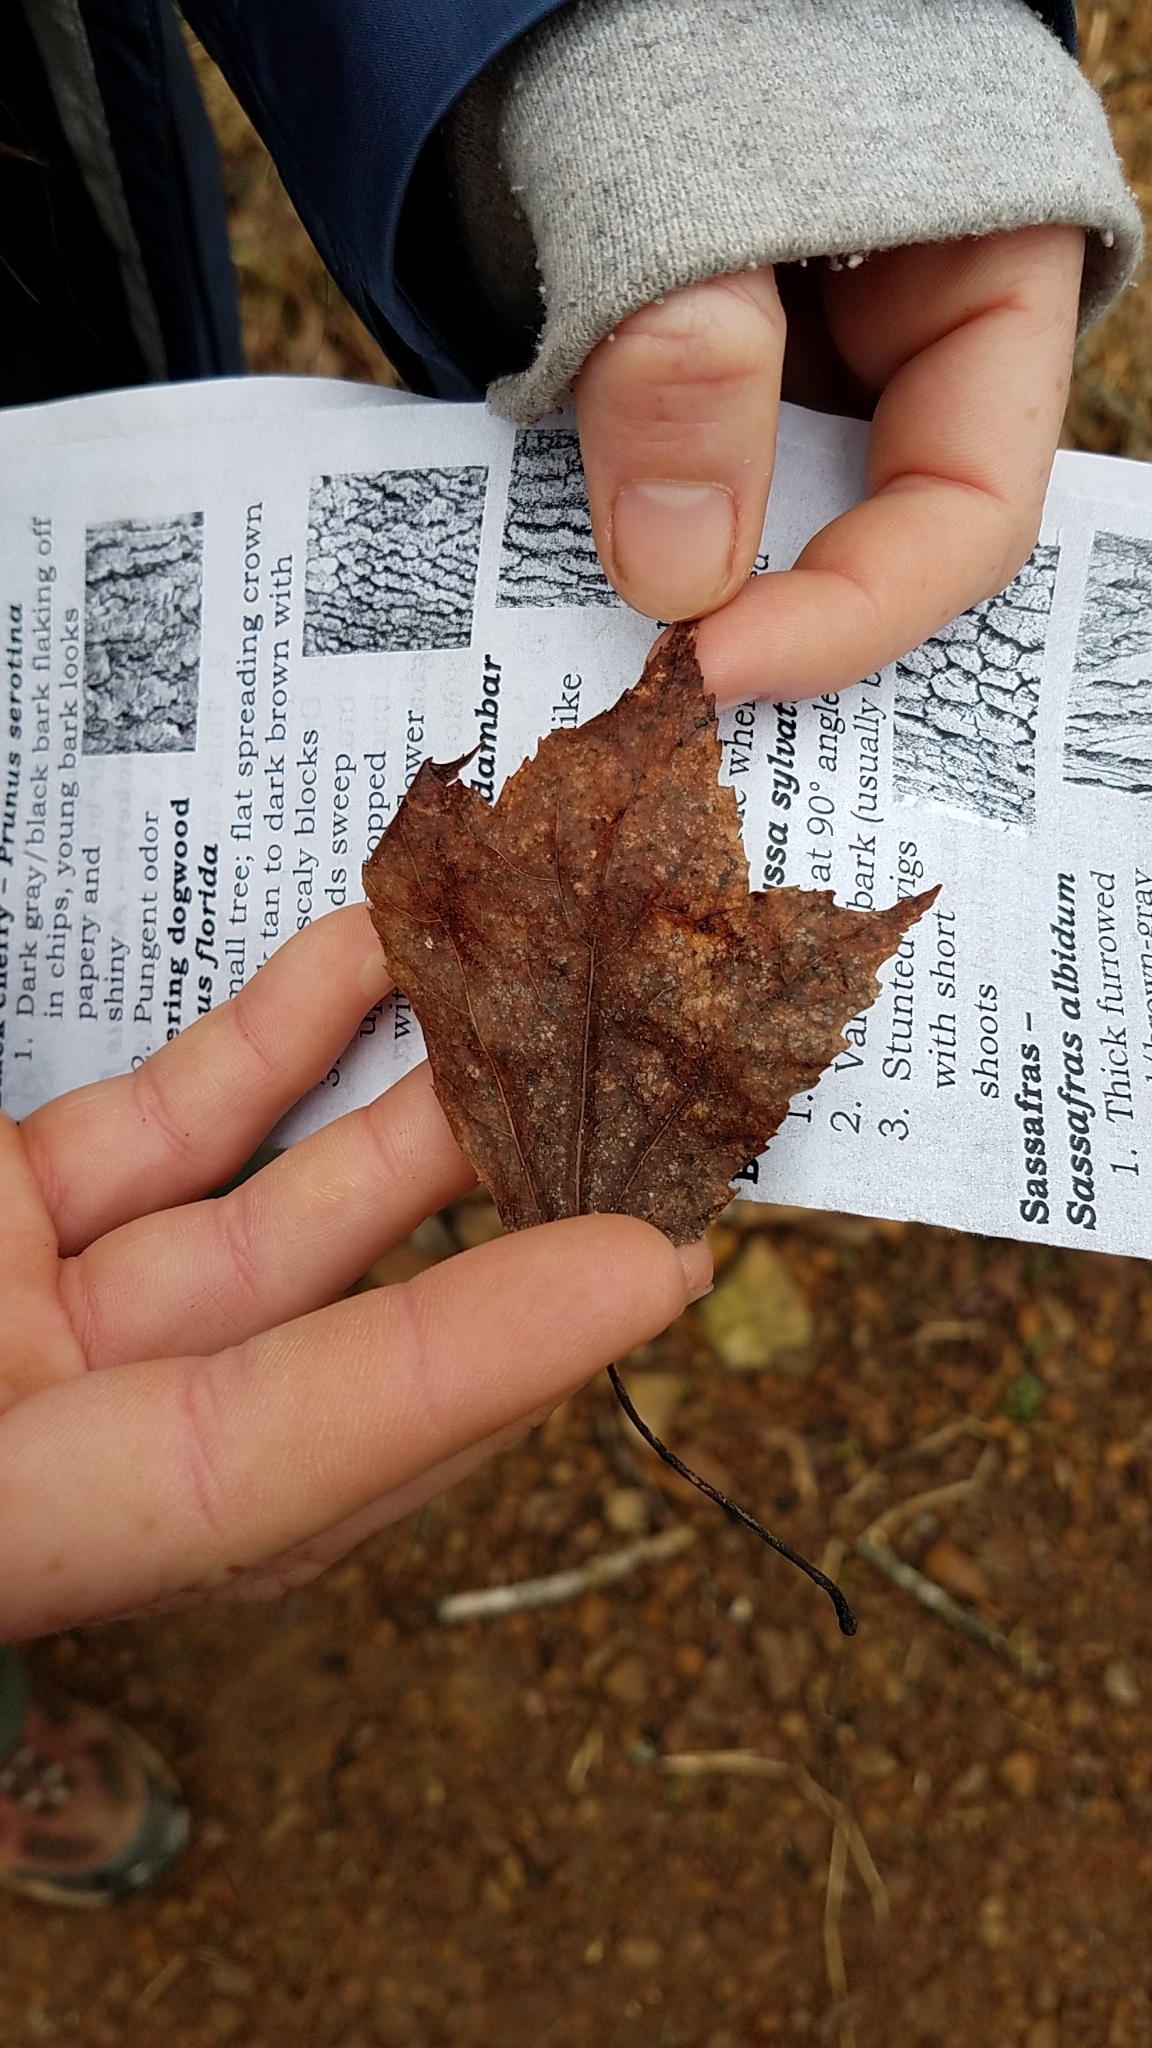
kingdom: Plantae
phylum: Tracheophyta
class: Magnoliopsida
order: Sapindales
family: Sapindaceae
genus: Acer
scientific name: Acer rubrum
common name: Red maple
